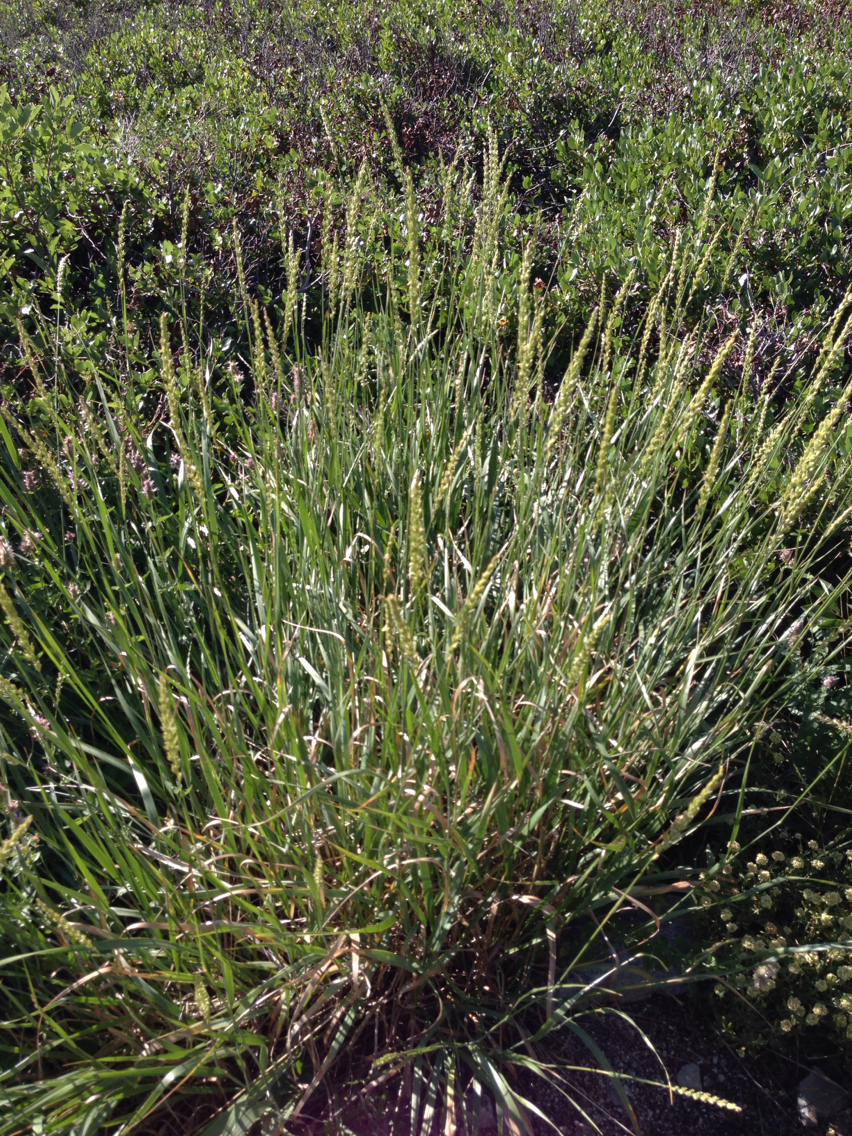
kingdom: Plantae
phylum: Tracheophyta
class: Liliopsida
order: Poales
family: Poaceae
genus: Leymus
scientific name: Leymus cinereus
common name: Basin wild rye
